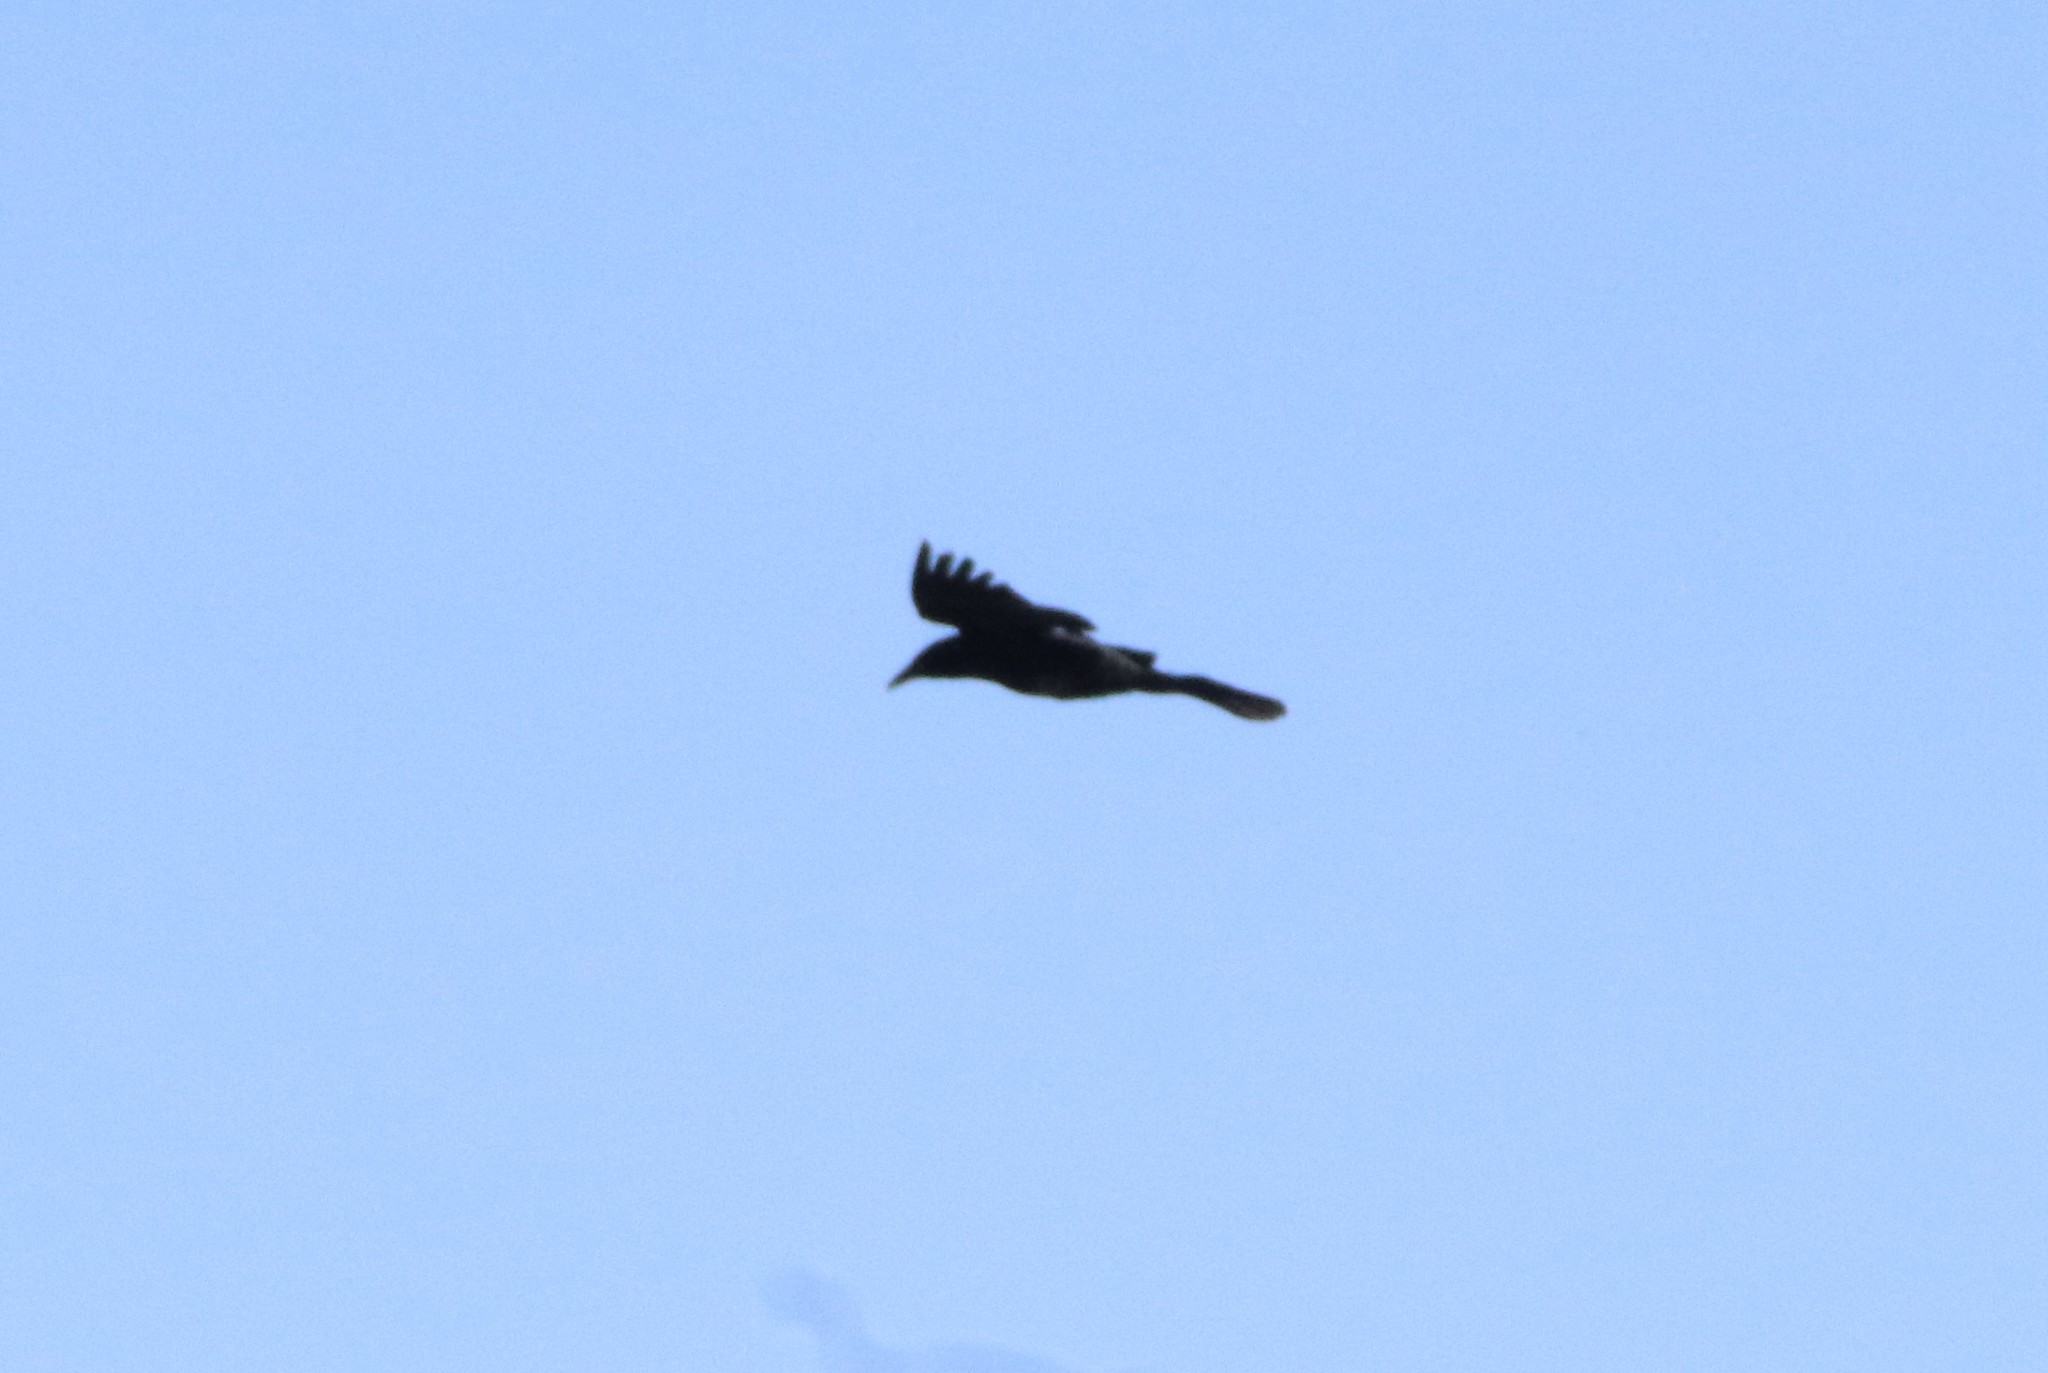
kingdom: Animalia
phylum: Chordata
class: Aves
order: Passeriformes
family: Icteridae
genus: Quiscalus
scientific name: Quiscalus mexicanus
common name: Great-tailed grackle
